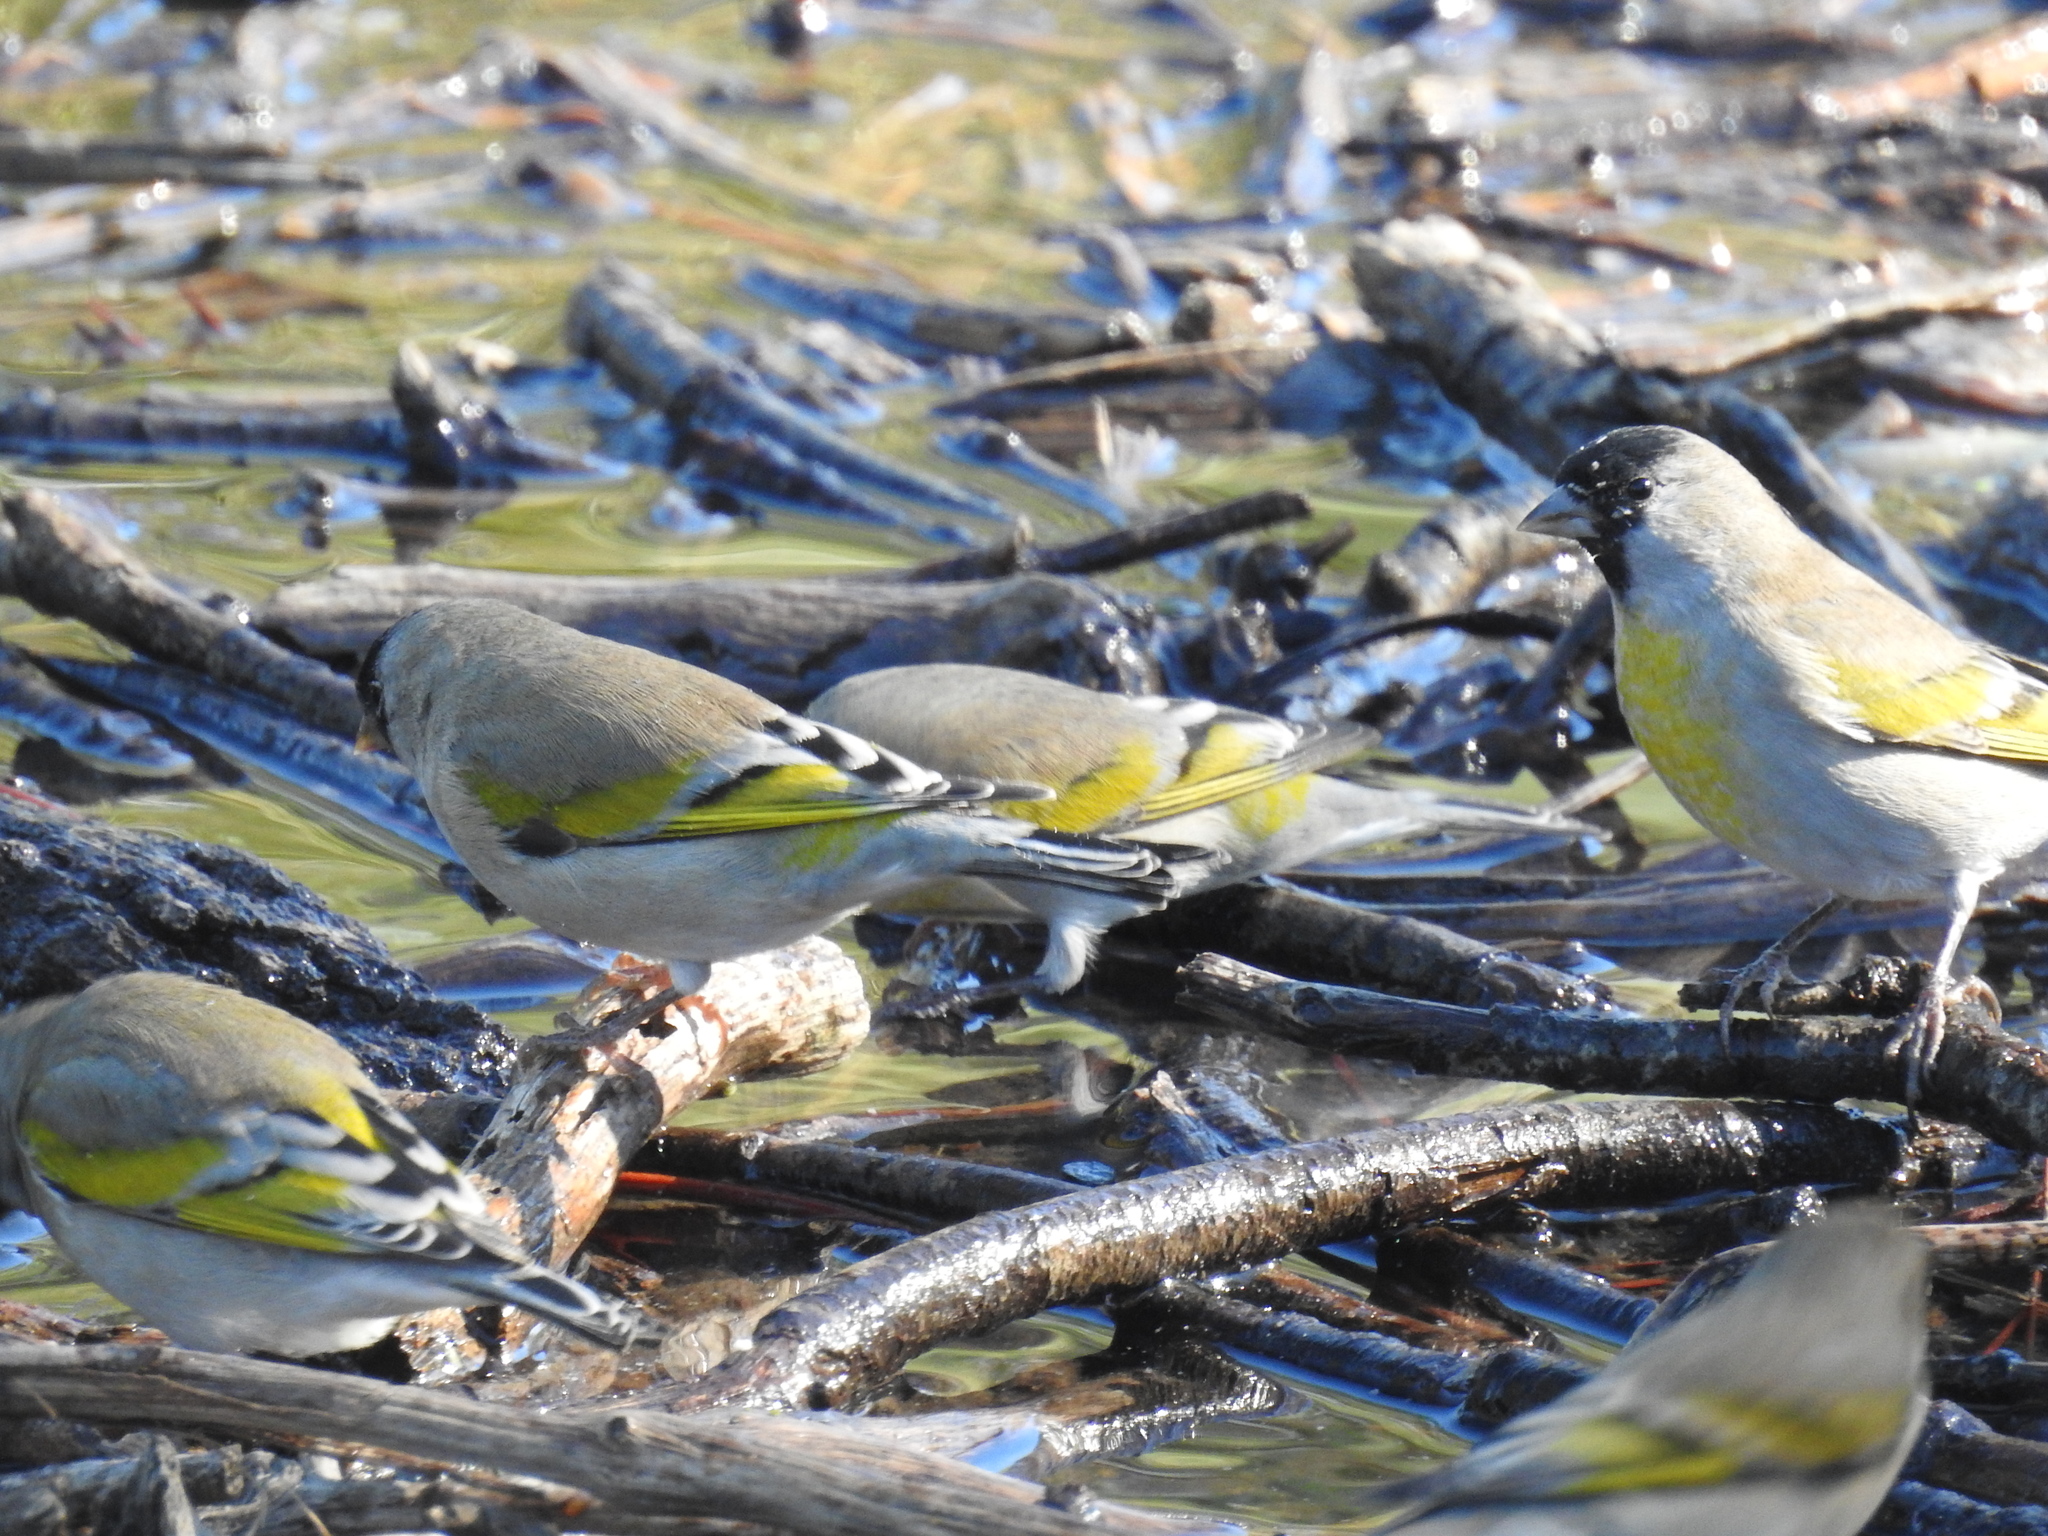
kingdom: Animalia
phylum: Chordata
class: Aves
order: Passeriformes
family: Fringillidae
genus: Spinus
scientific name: Spinus lawrencei
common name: Lawrence's goldfinch
